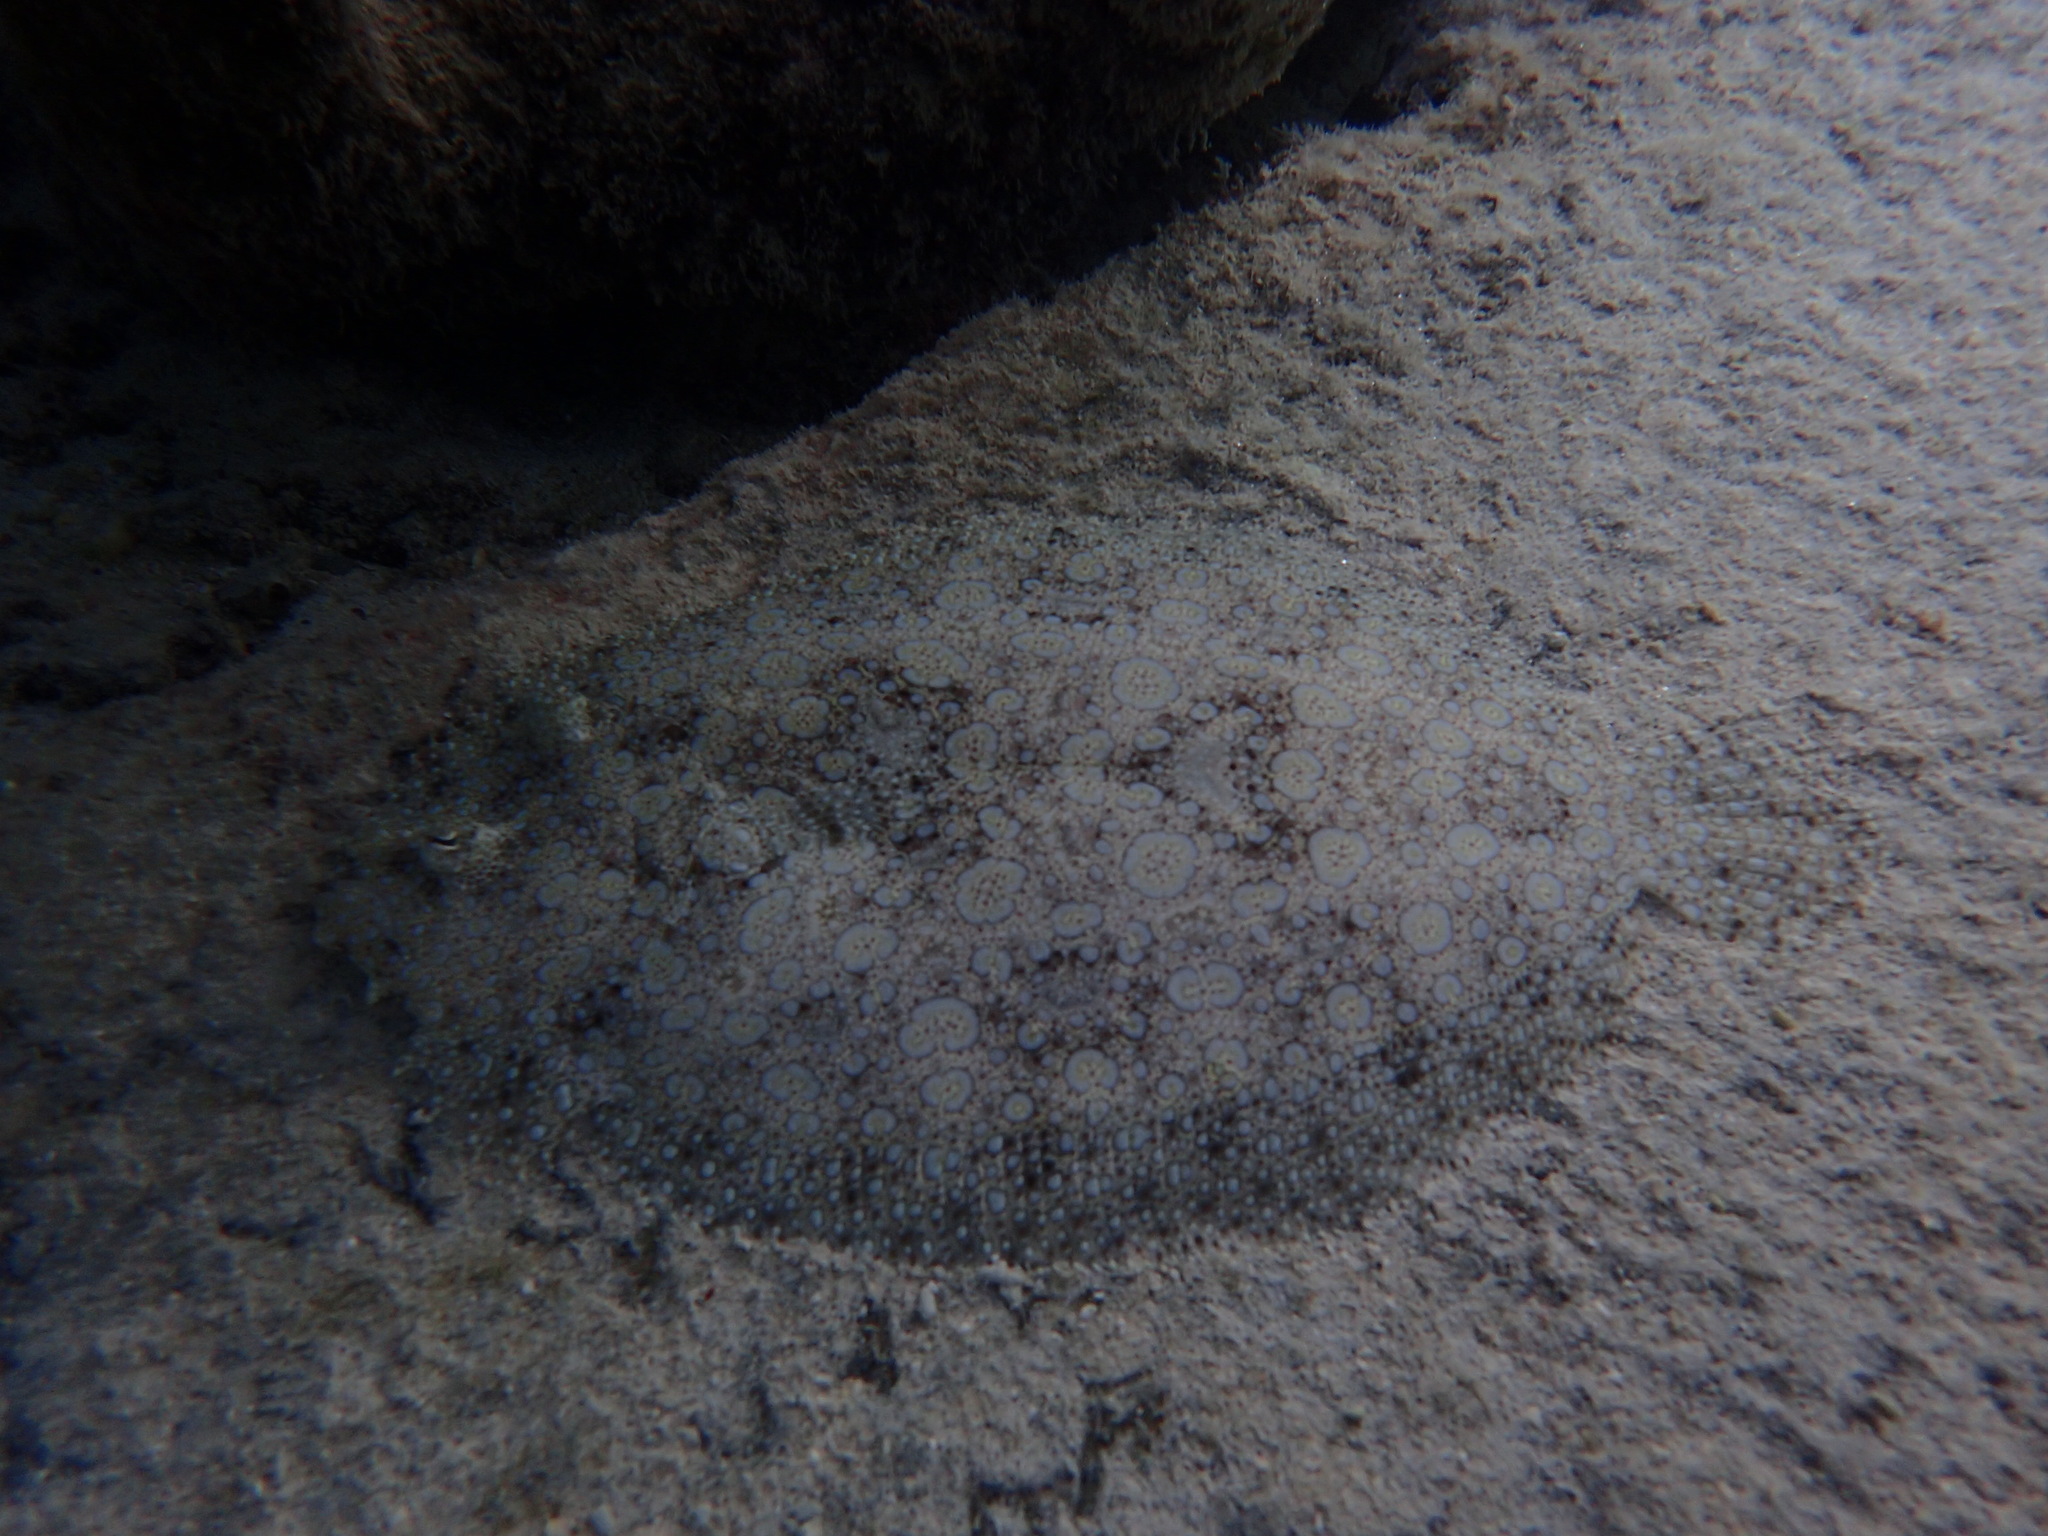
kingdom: Animalia
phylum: Chordata
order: Pleuronectiformes
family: Bothidae
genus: Bothus
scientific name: Bothus mancus
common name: Flowery flounder
